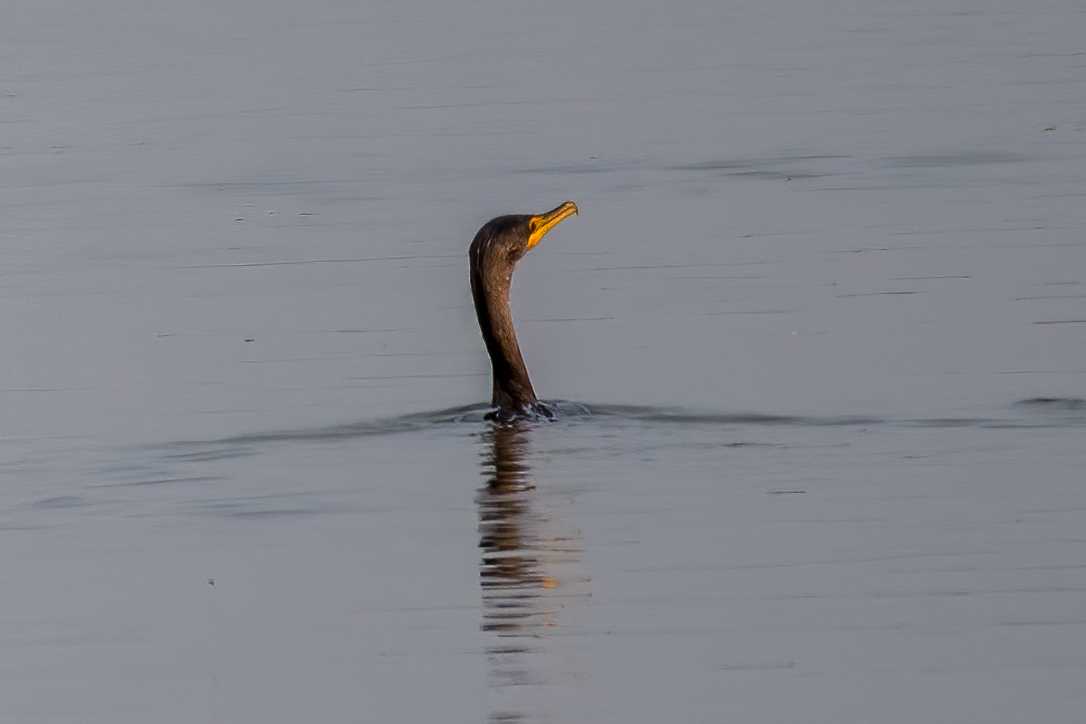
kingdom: Animalia
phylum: Chordata
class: Aves
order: Suliformes
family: Phalacrocoracidae
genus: Phalacrocorax
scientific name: Phalacrocorax auritus
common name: Double-crested cormorant
